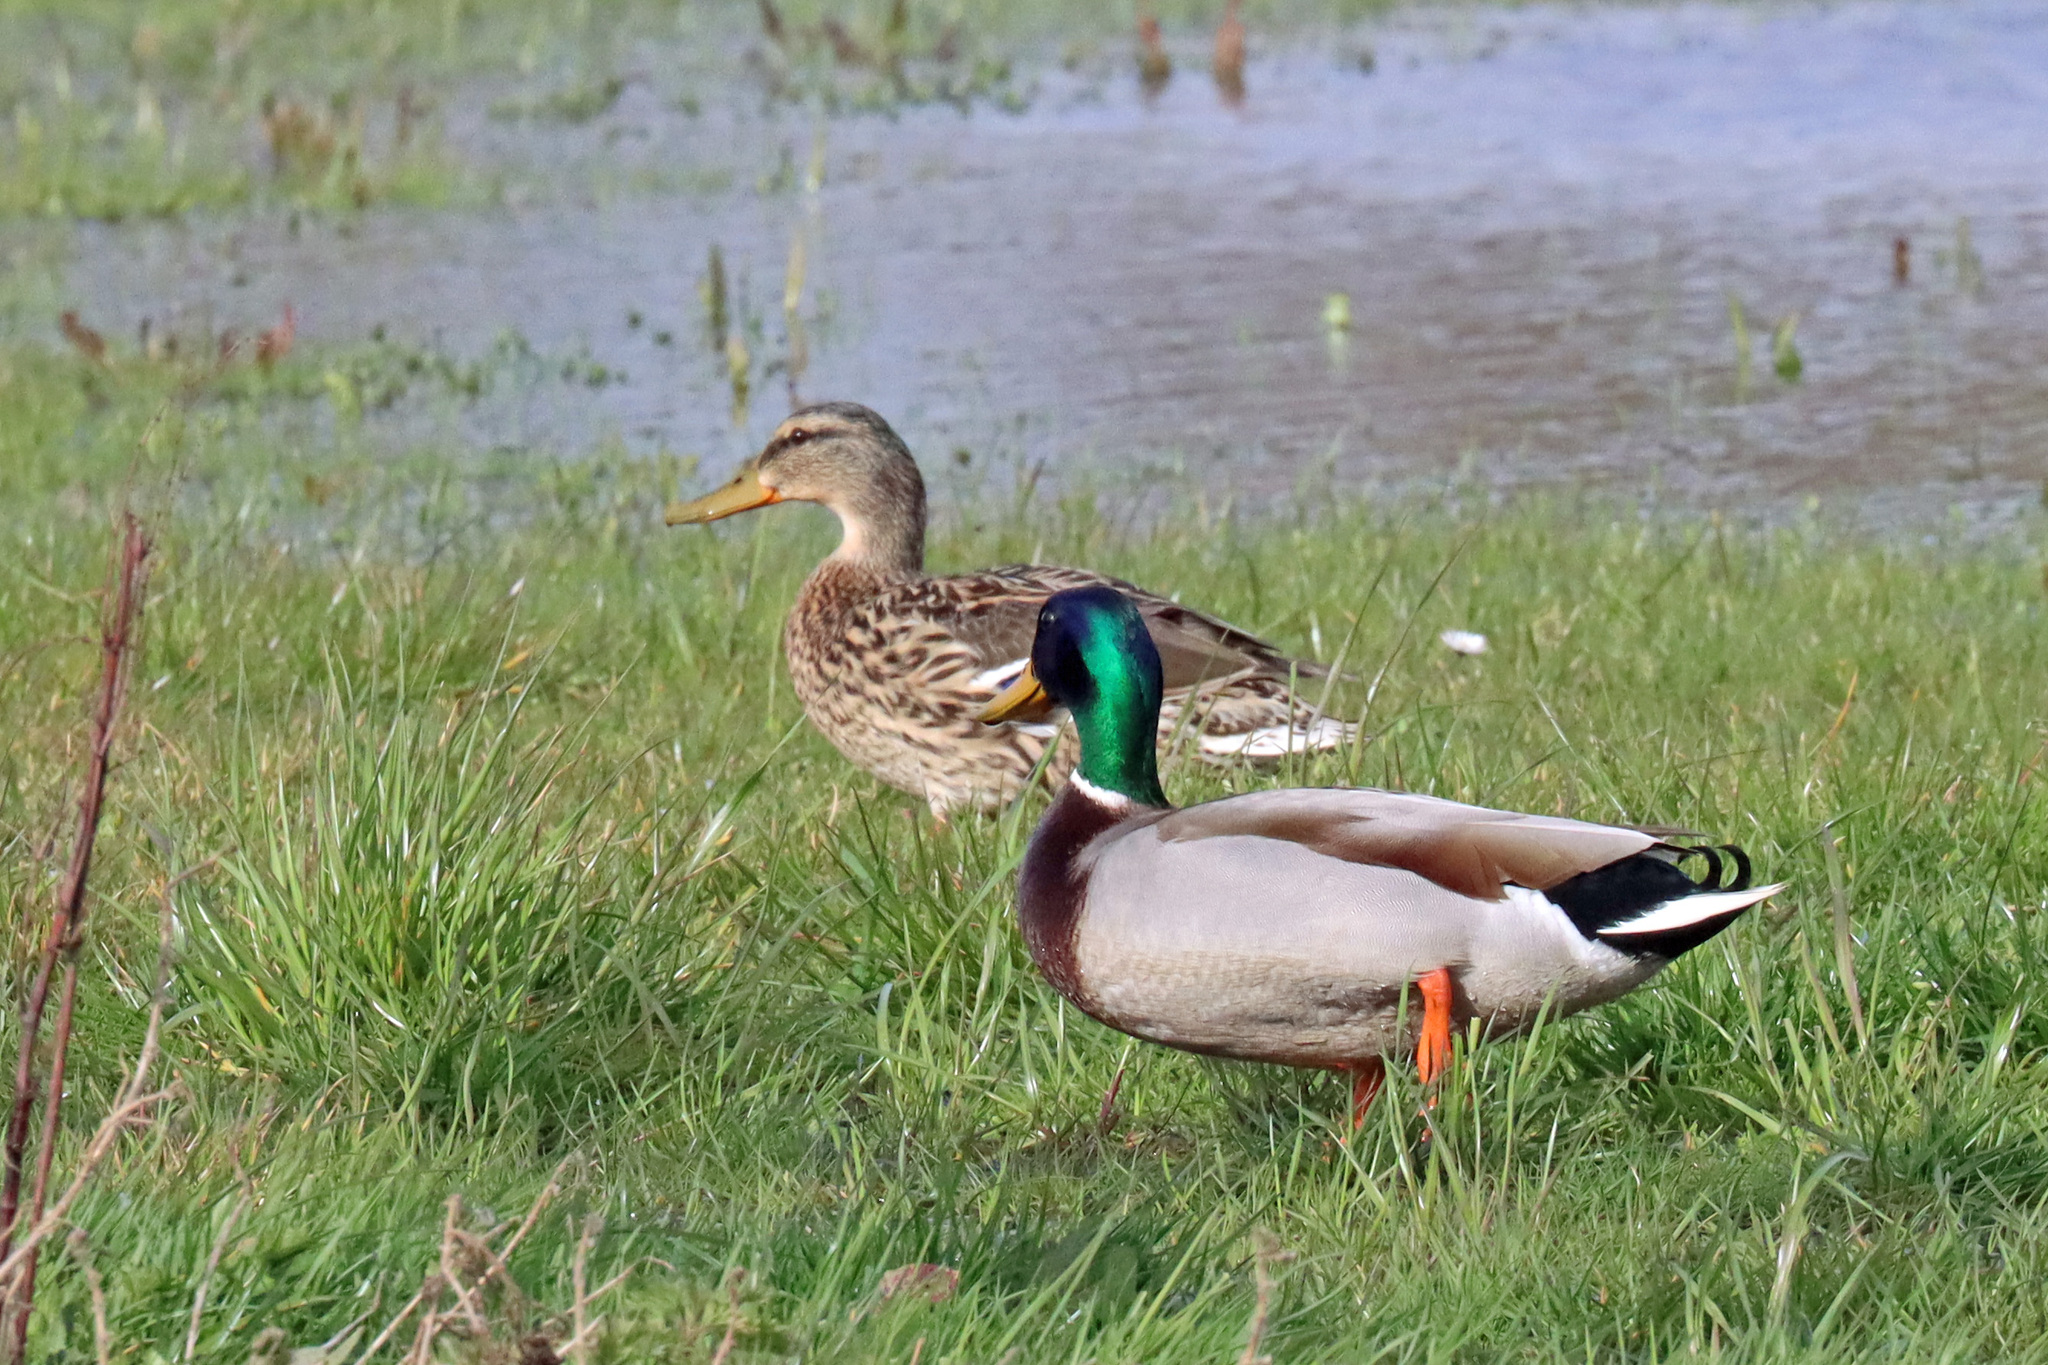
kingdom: Animalia
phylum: Chordata
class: Aves
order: Anseriformes
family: Anatidae
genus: Anas
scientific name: Anas platyrhynchos
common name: Mallard
